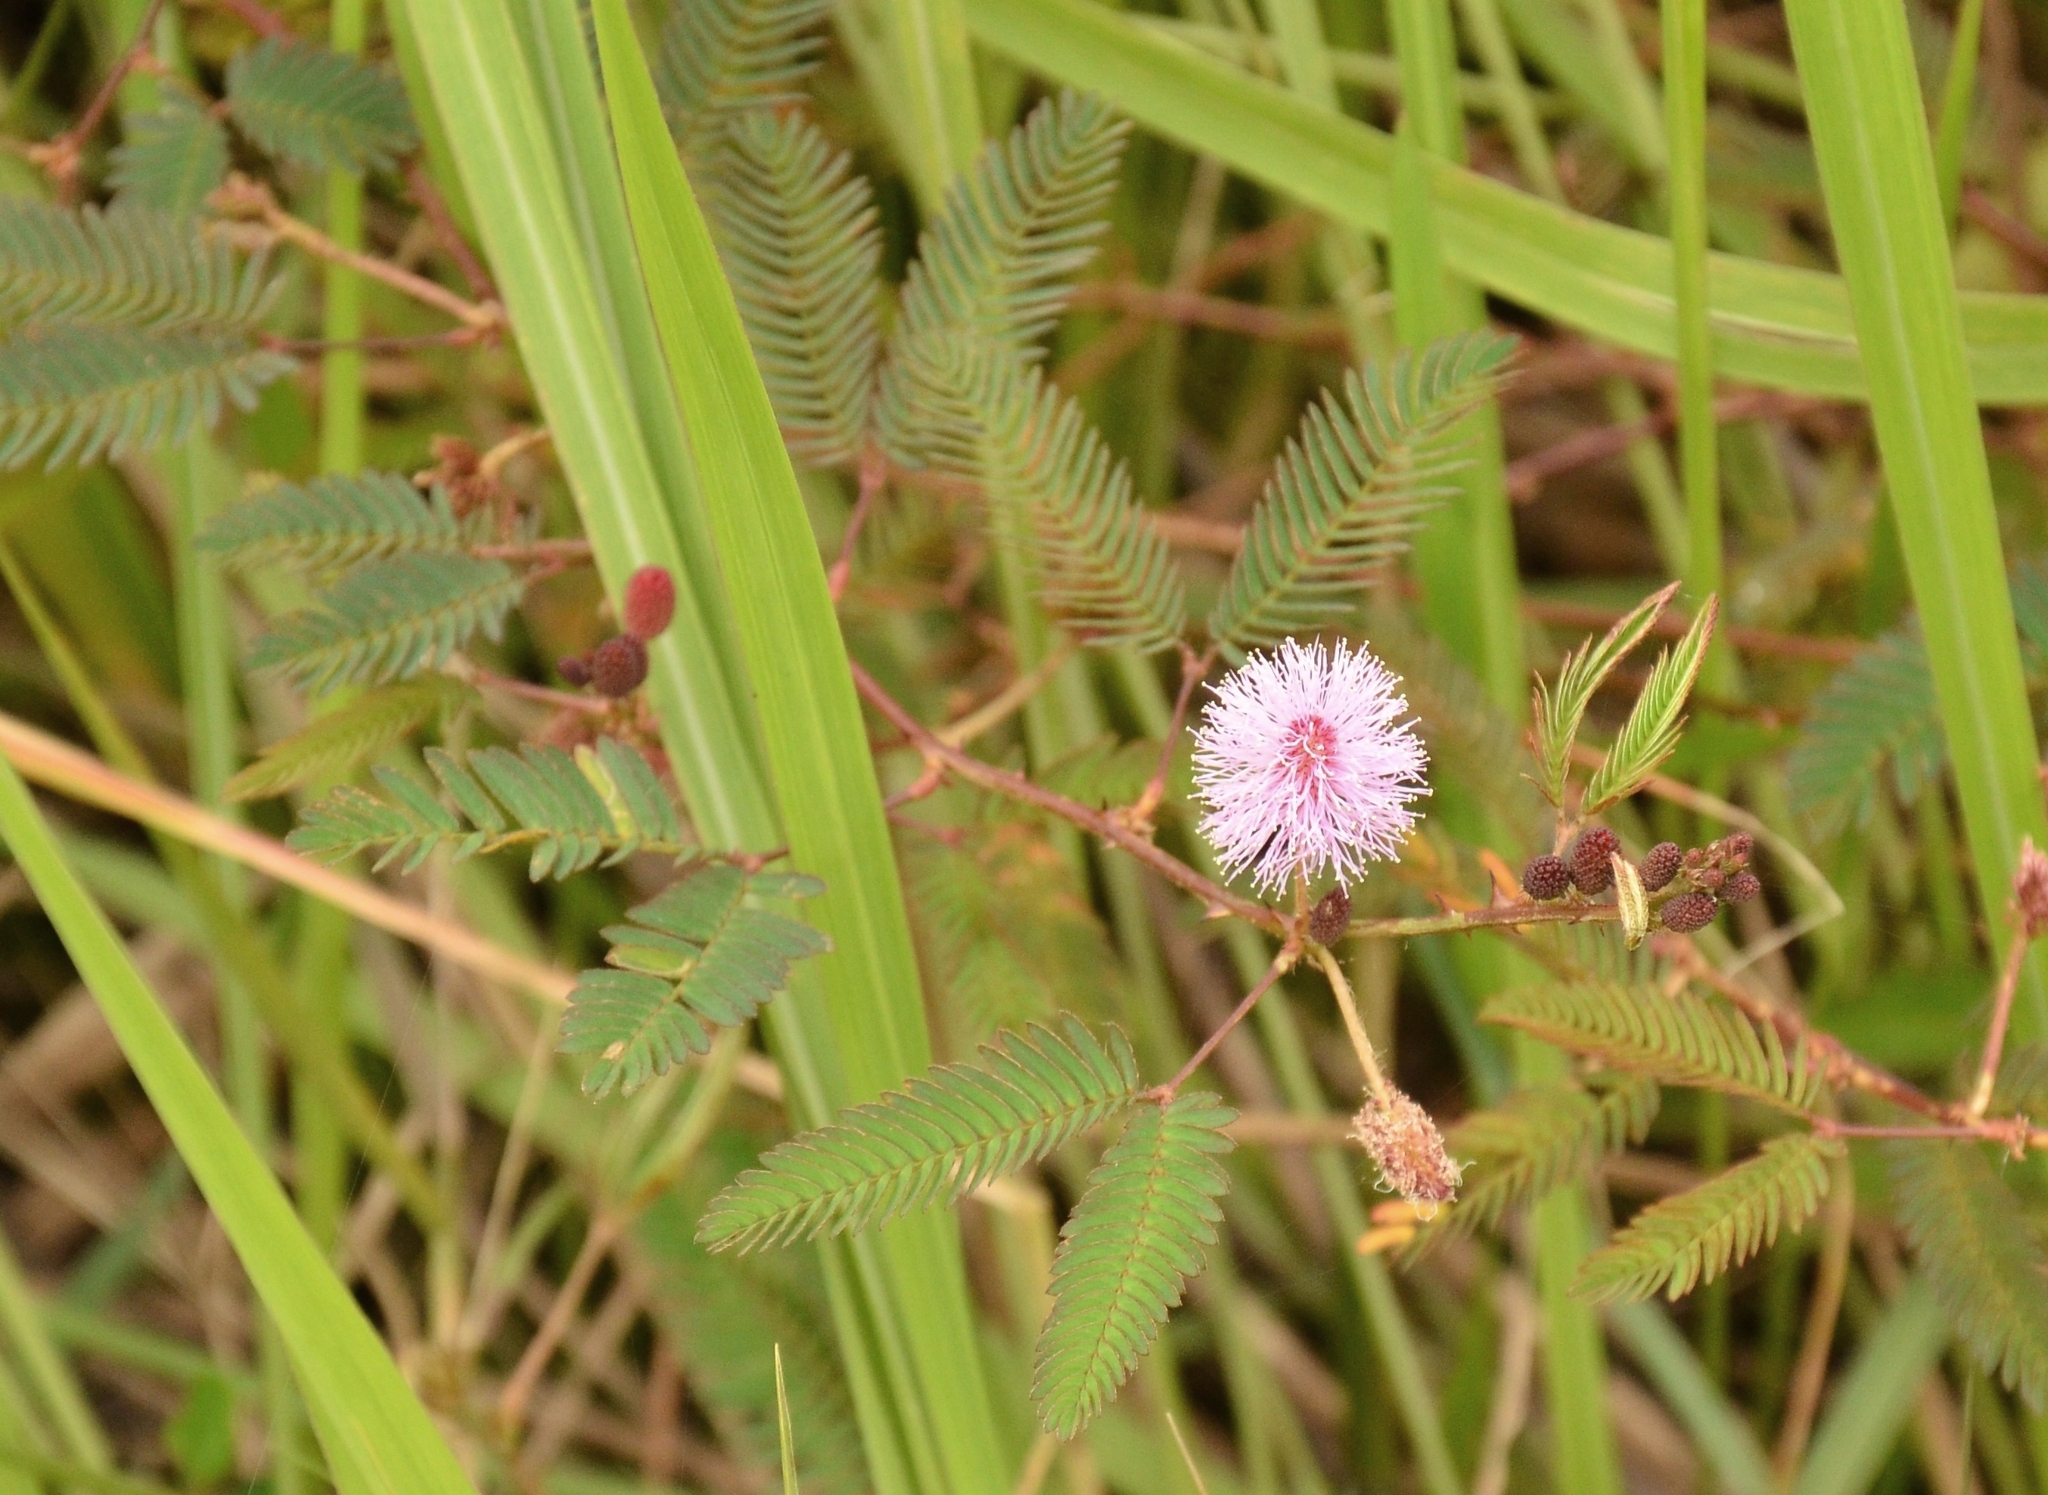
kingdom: Plantae
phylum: Tracheophyta
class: Magnoliopsida
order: Fabales
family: Fabaceae
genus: Mimosa
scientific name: Mimosa pudica
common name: Sensitive plant
